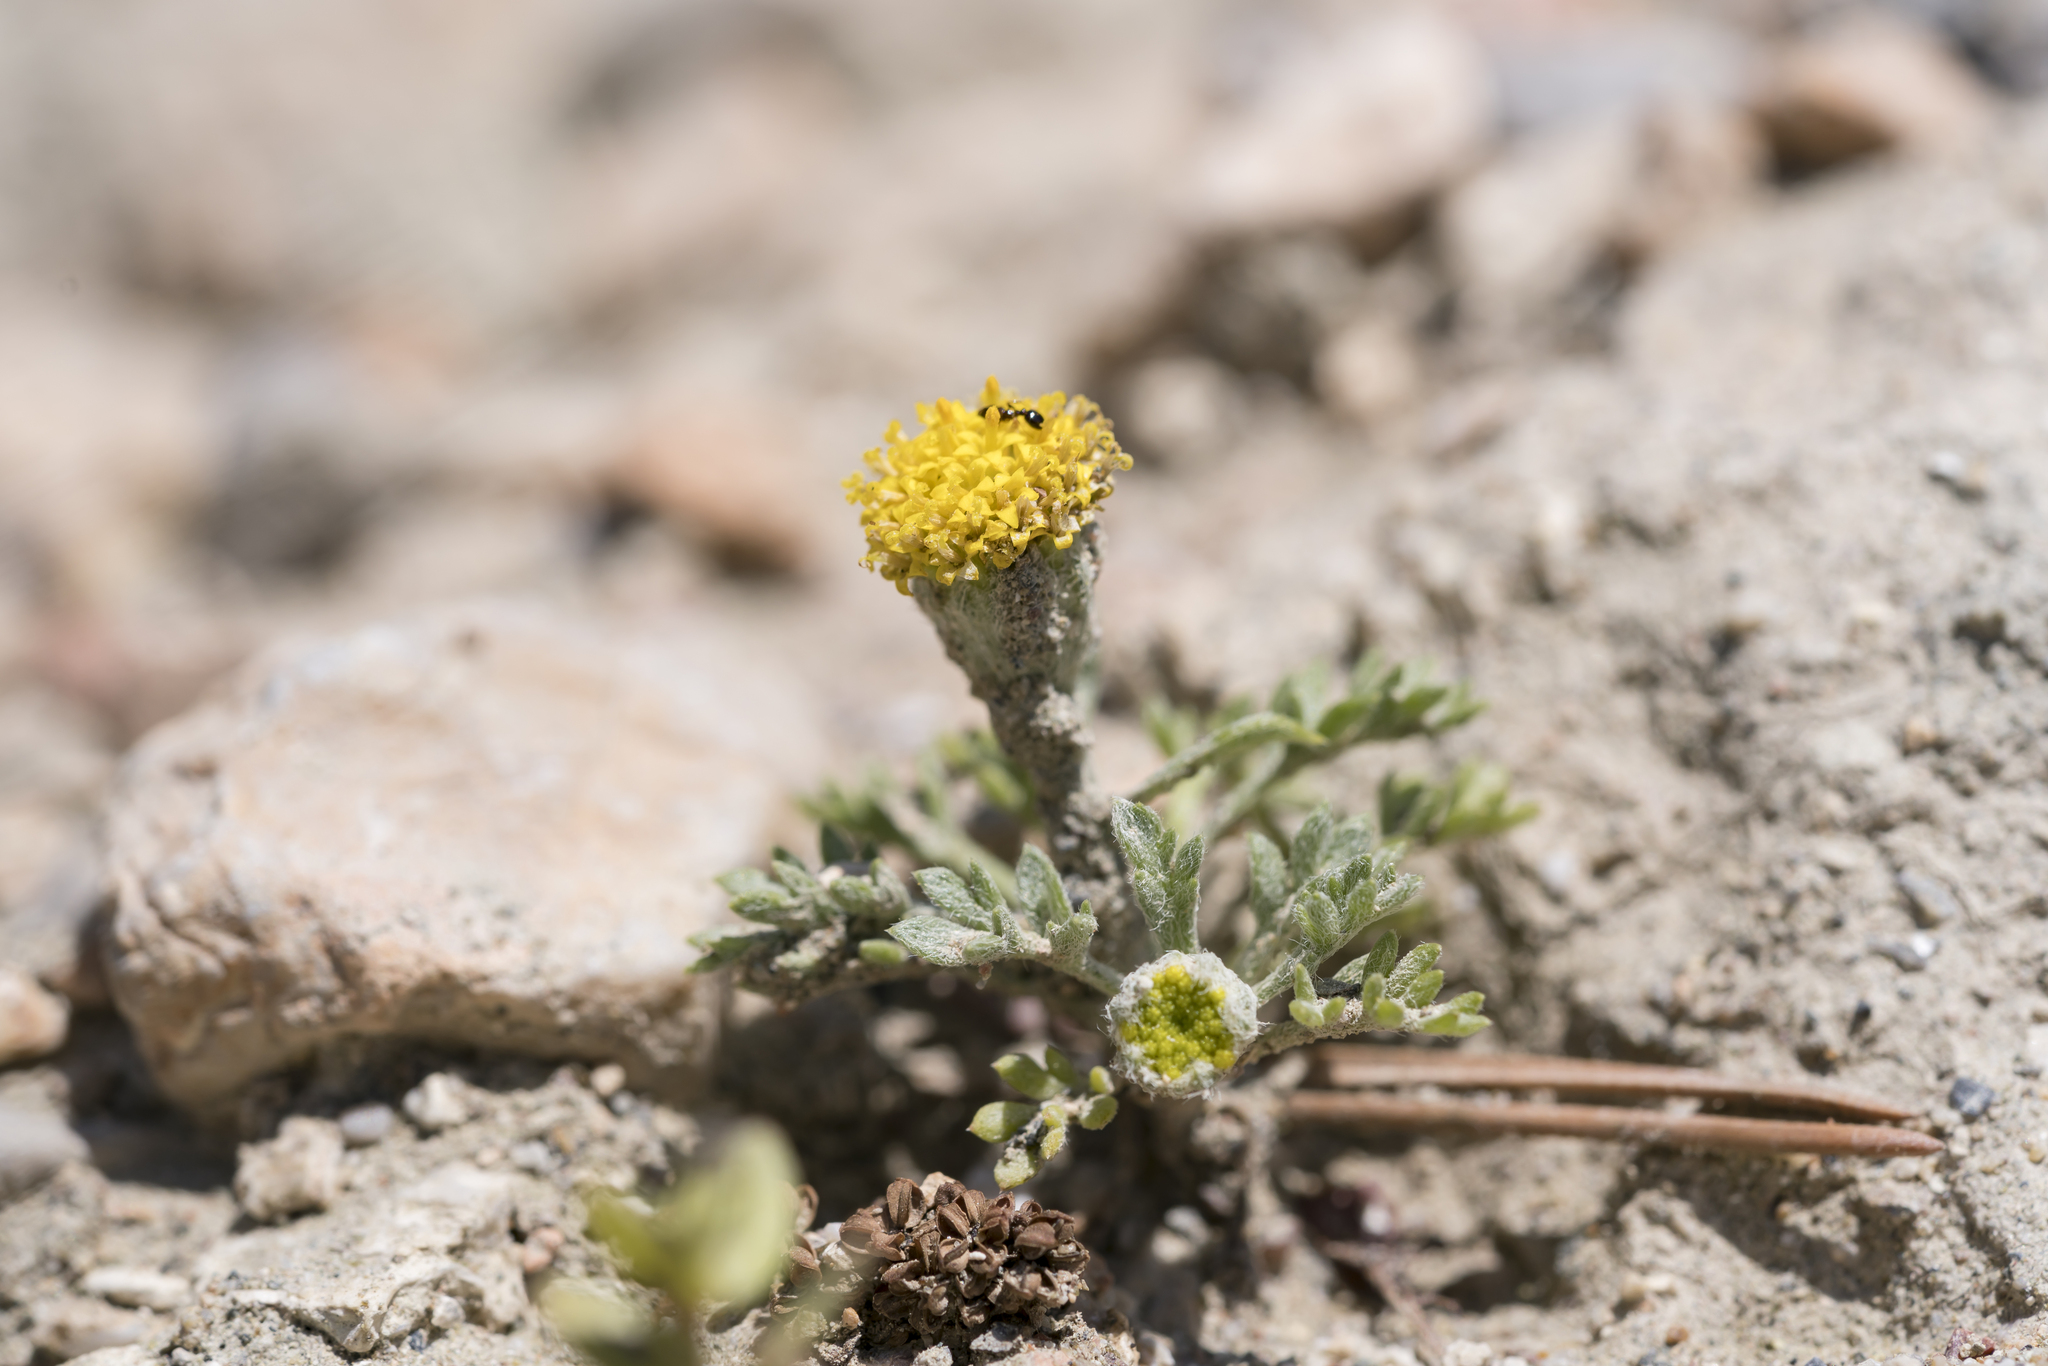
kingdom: Plantae
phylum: Tracheophyta
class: Magnoliopsida
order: Asterales
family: Asteraceae
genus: Anthemis
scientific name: Anthemis rigida
